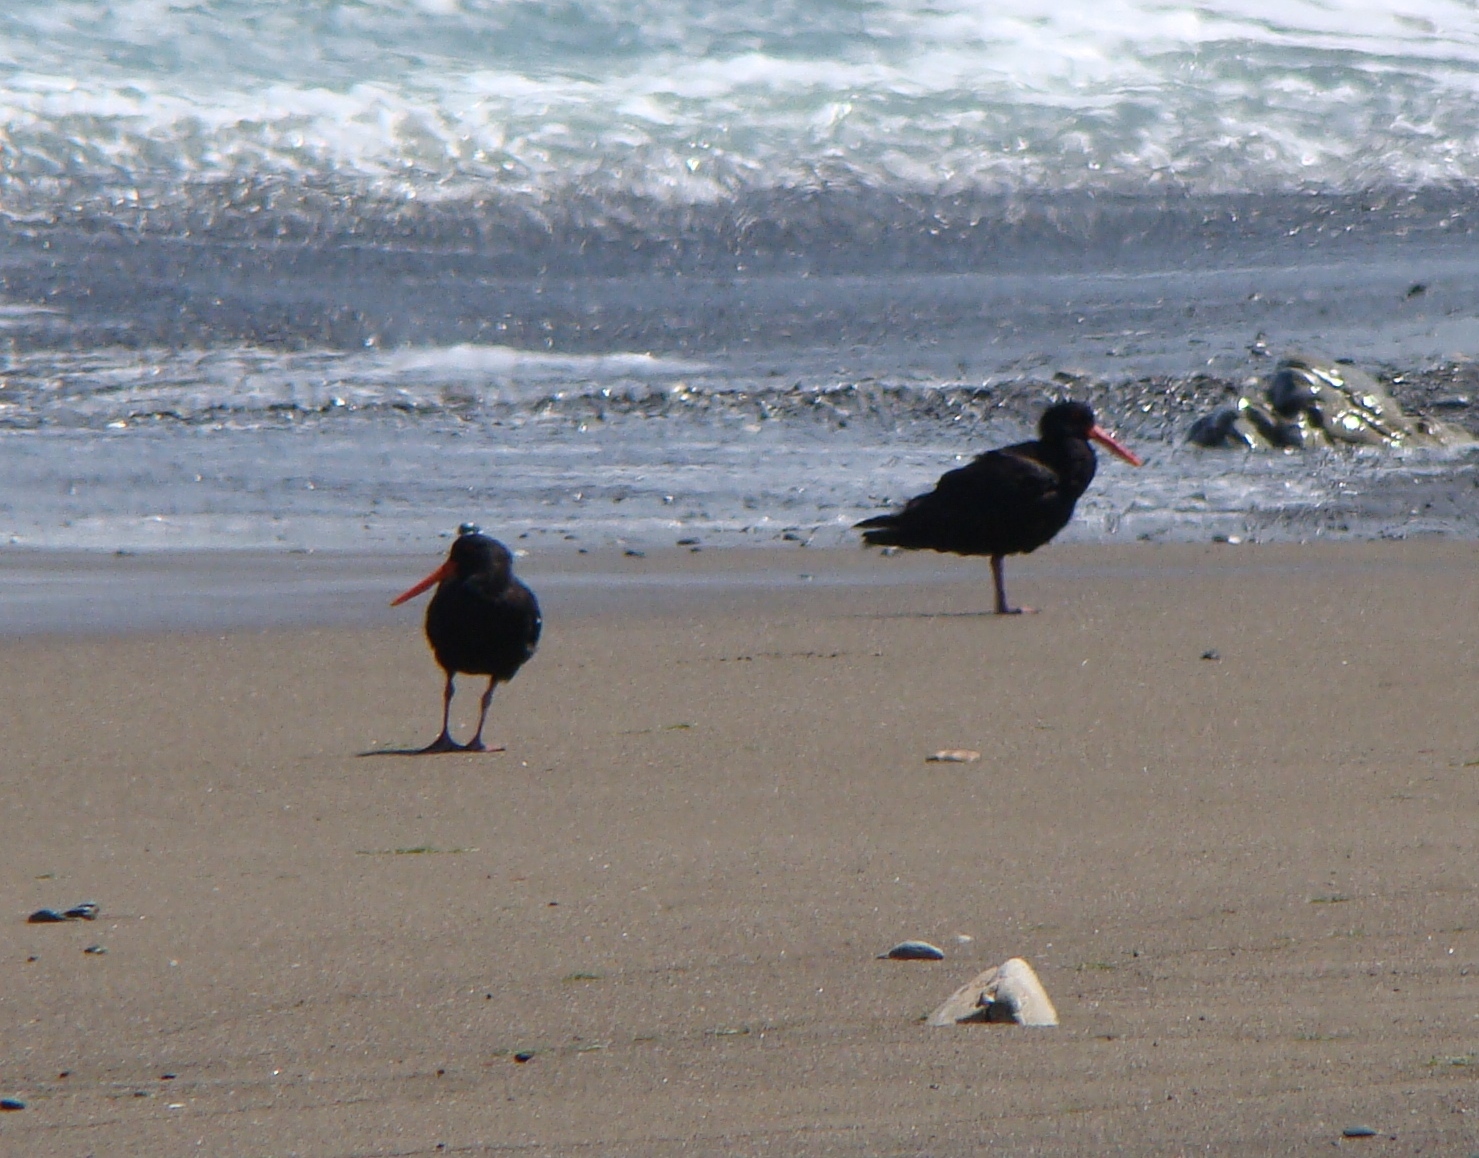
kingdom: Animalia
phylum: Chordata
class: Aves
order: Charadriiformes
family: Haematopodidae
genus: Haematopus
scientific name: Haematopus unicolor
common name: Variable oystercatcher
